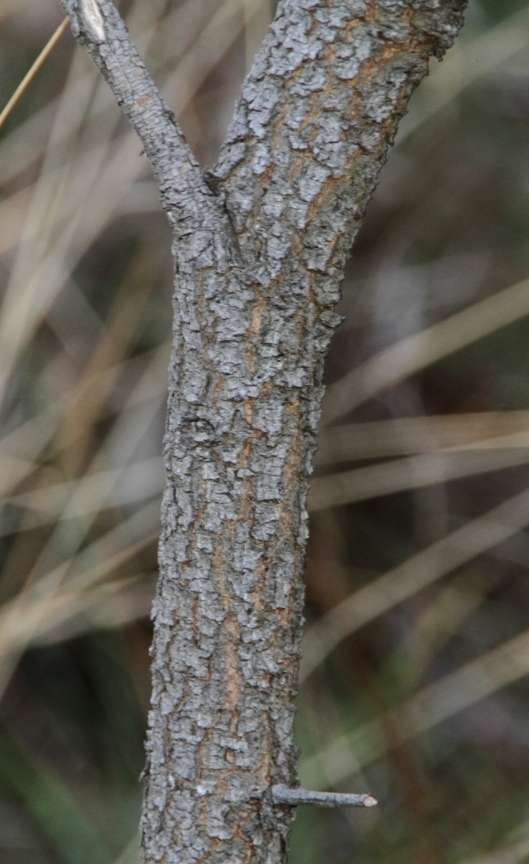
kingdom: Plantae
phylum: Tracheophyta
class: Magnoliopsida
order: Fabales
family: Fabaceae
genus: Acacia
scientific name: Acacia implexa
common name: Black wattle
